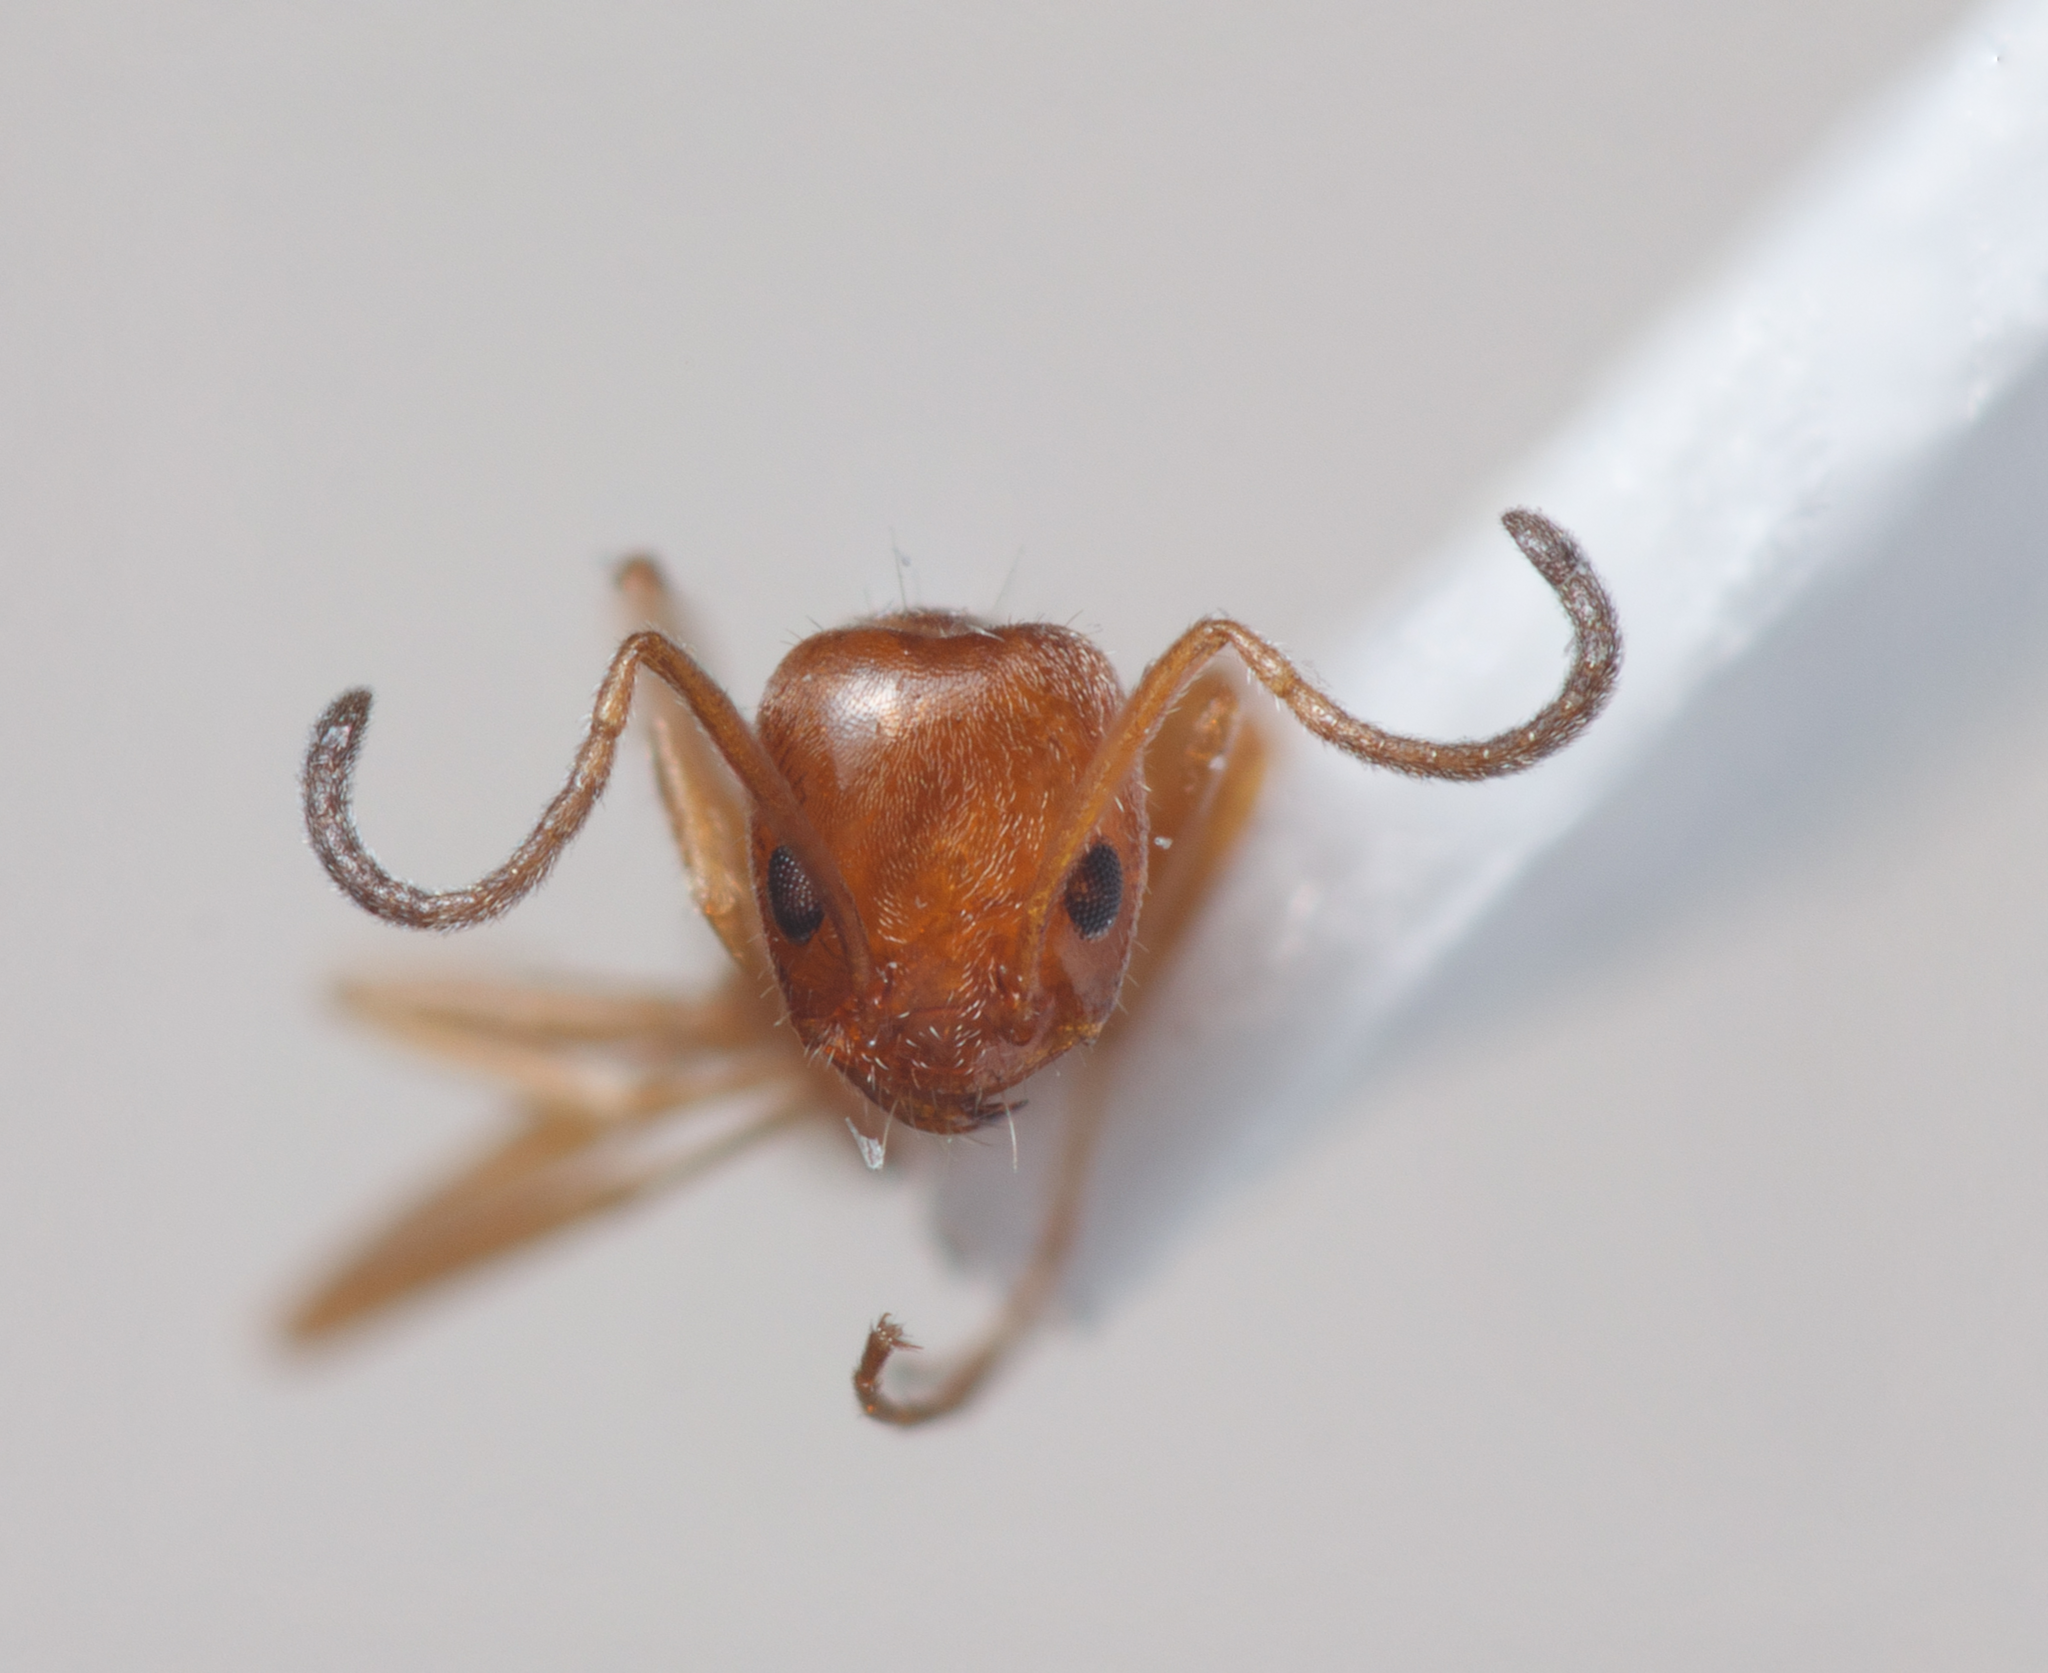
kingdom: Animalia
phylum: Arthropoda
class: Insecta
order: Hymenoptera
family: Formicidae
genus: Forelius
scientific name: Forelius mccooki
